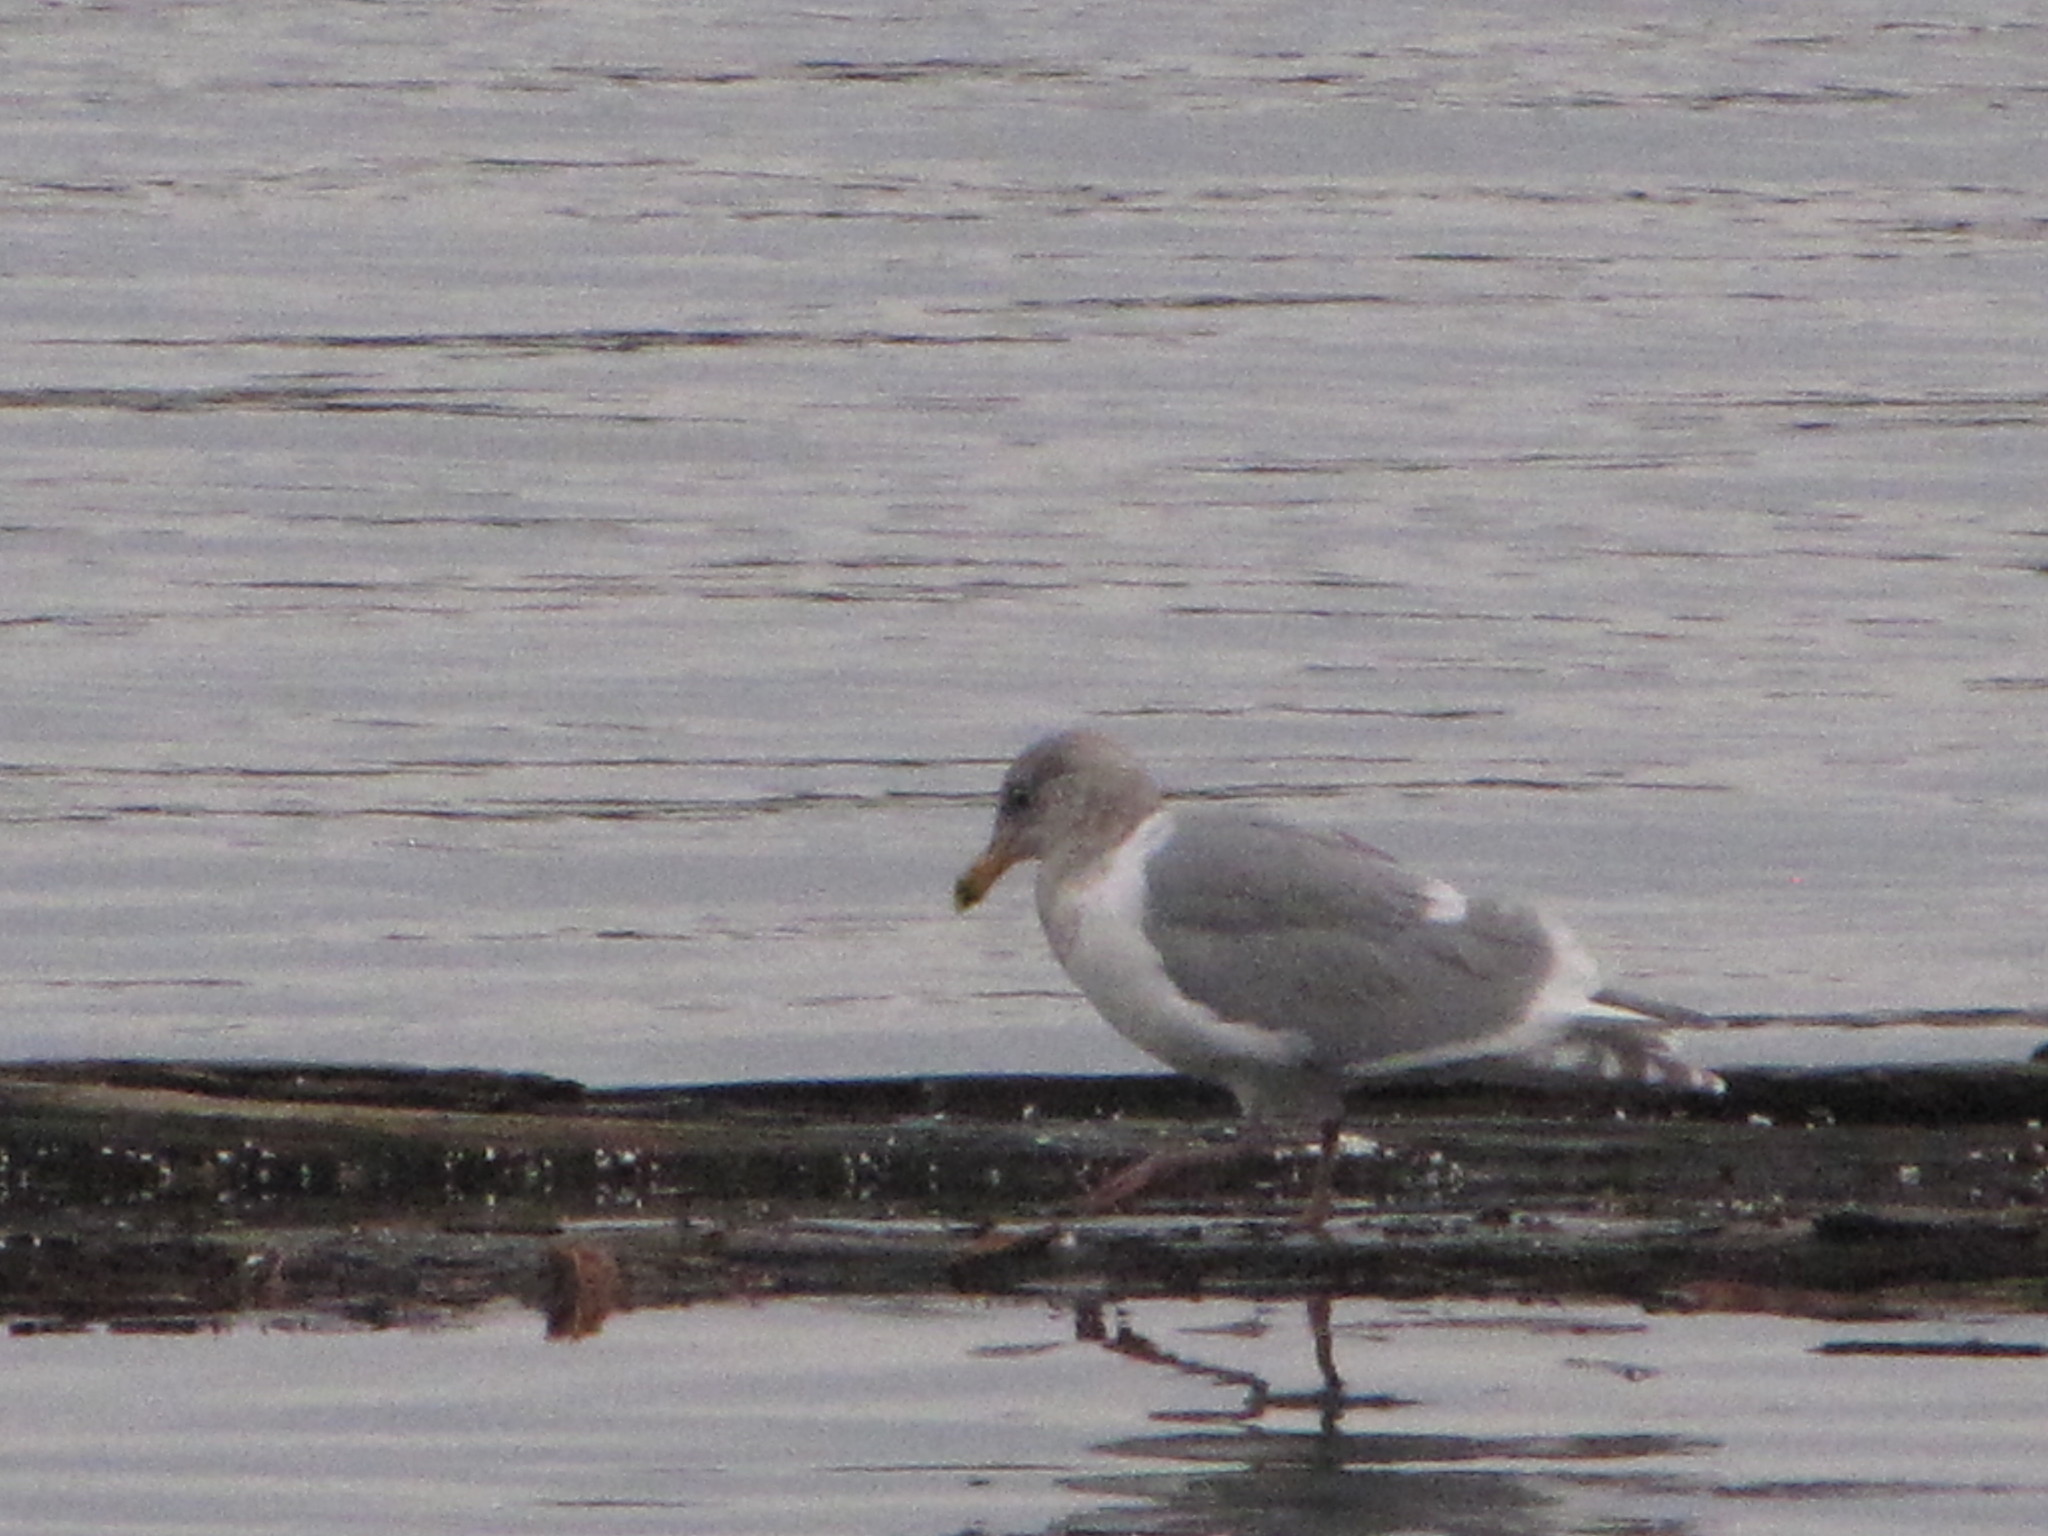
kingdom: Animalia
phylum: Chordata
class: Aves
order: Charadriiformes
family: Laridae
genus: Larus
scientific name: Larus glaucescens
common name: Glaucous-winged gull
